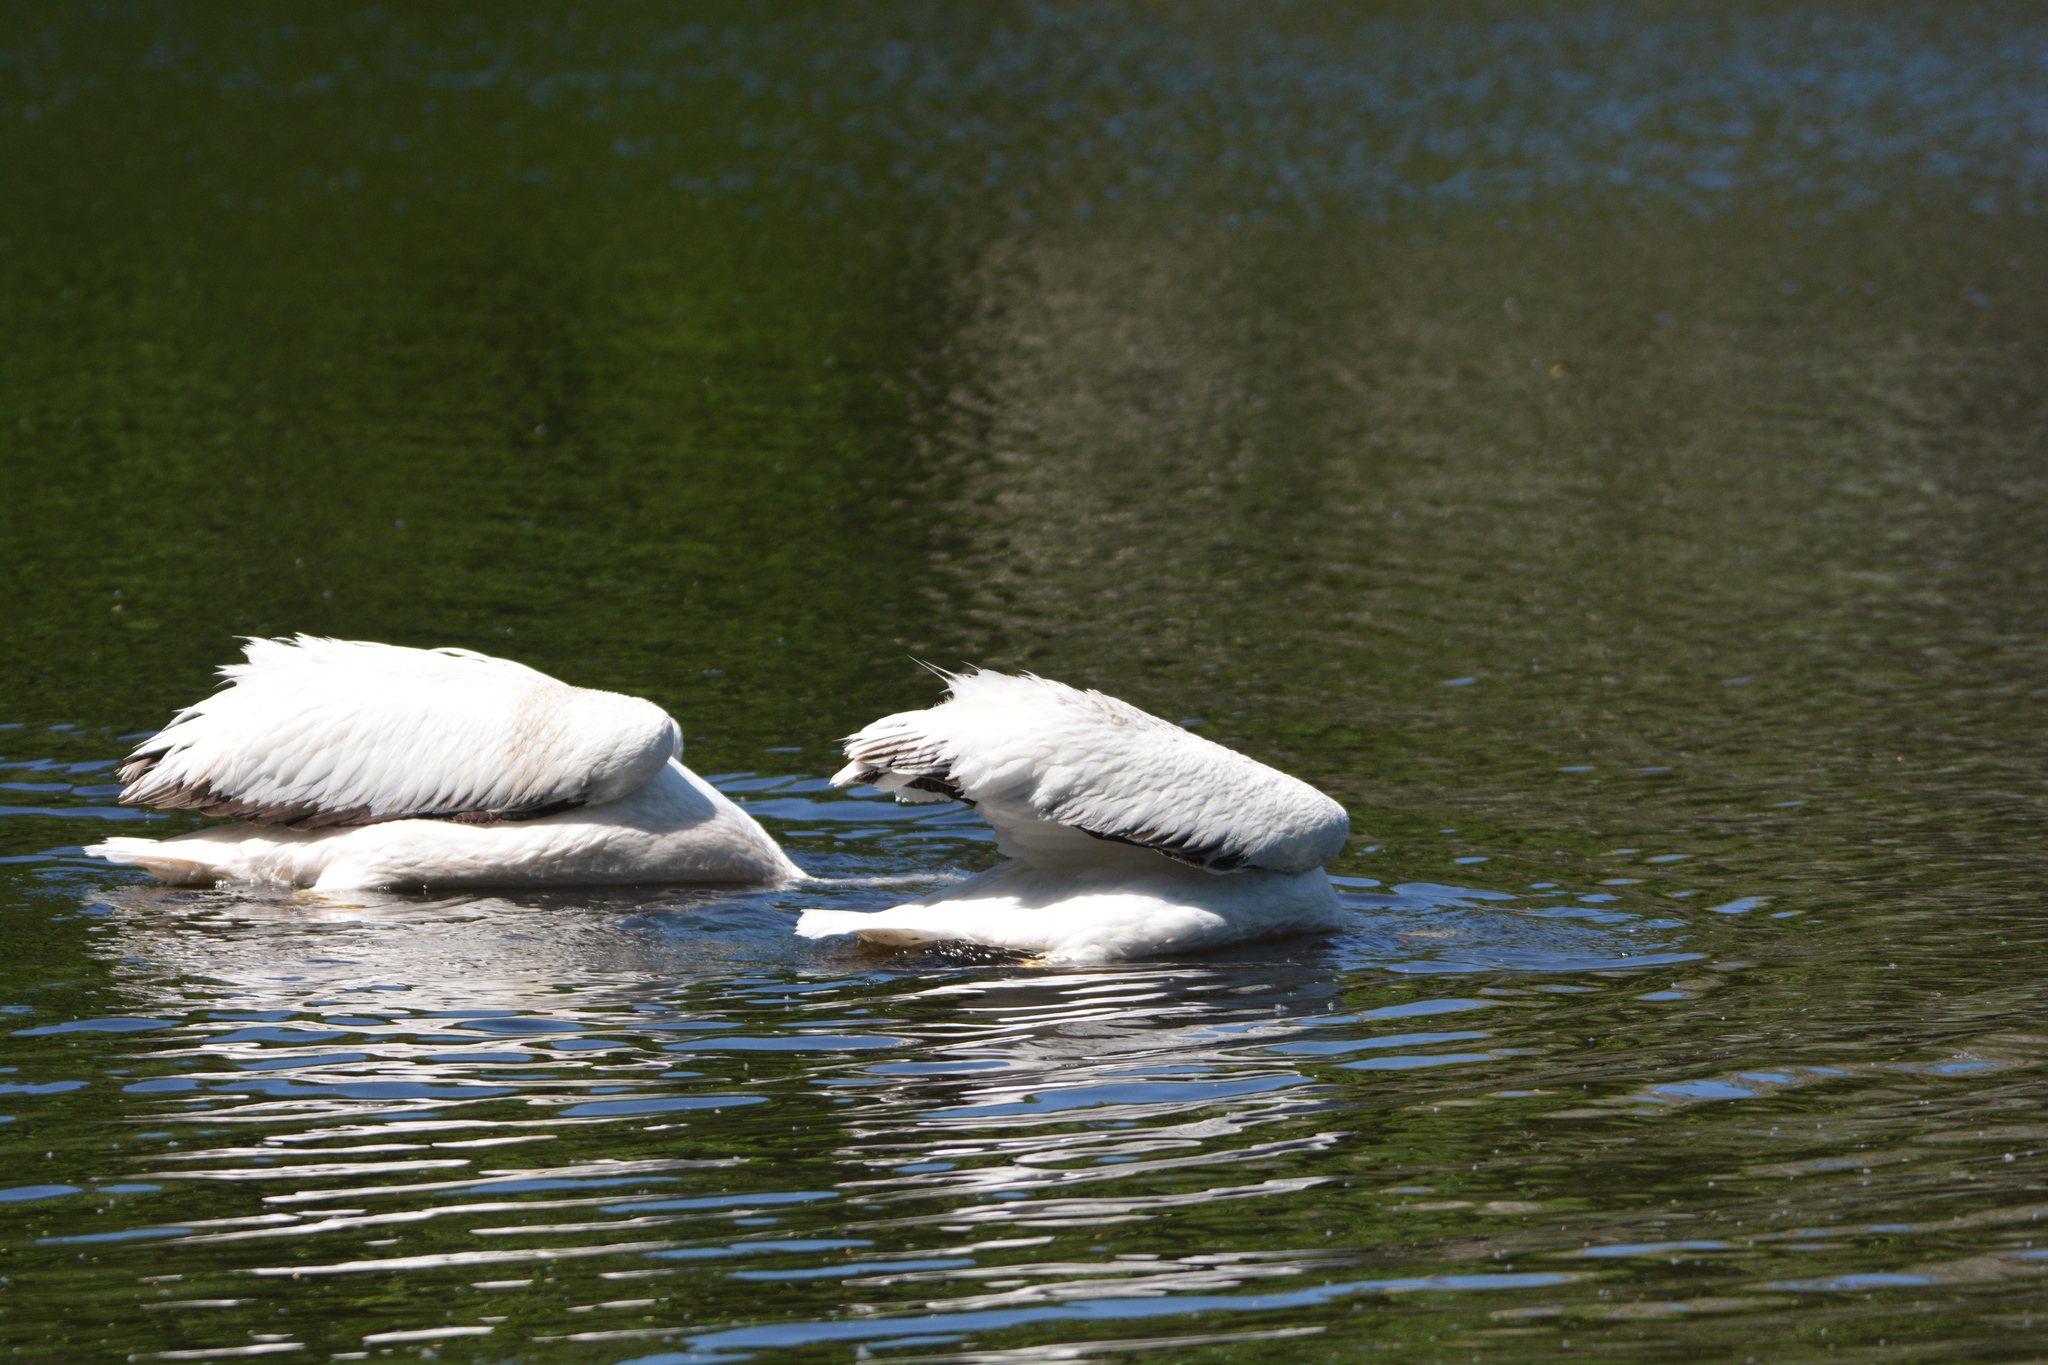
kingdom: Animalia
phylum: Chordata
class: Aves
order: Pelecaniformes
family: Pelecanidae
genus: Pelecanus
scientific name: Pelecanus erythrorhynchos
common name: American white pelican
